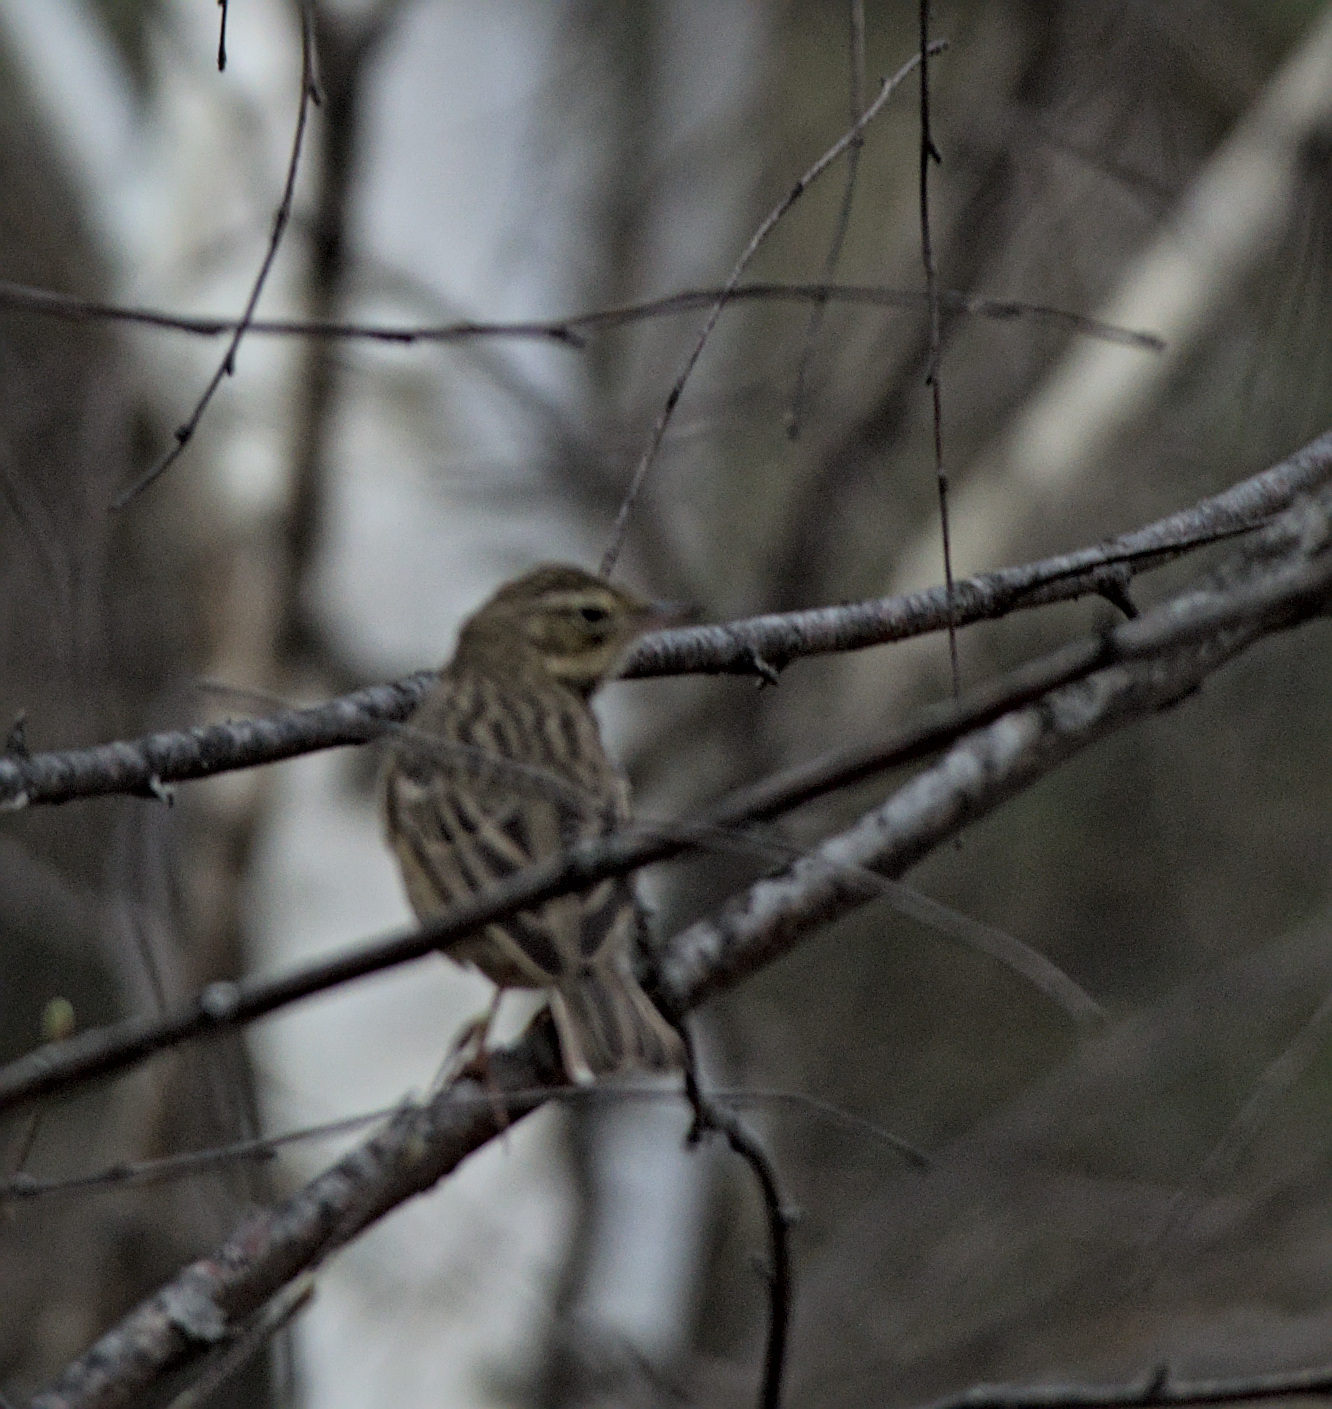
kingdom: Animalia
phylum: Chordata
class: Aves
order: Passeriformes
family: Motacillidae
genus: Anthus
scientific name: Anthus trivialis
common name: Tree pipit
